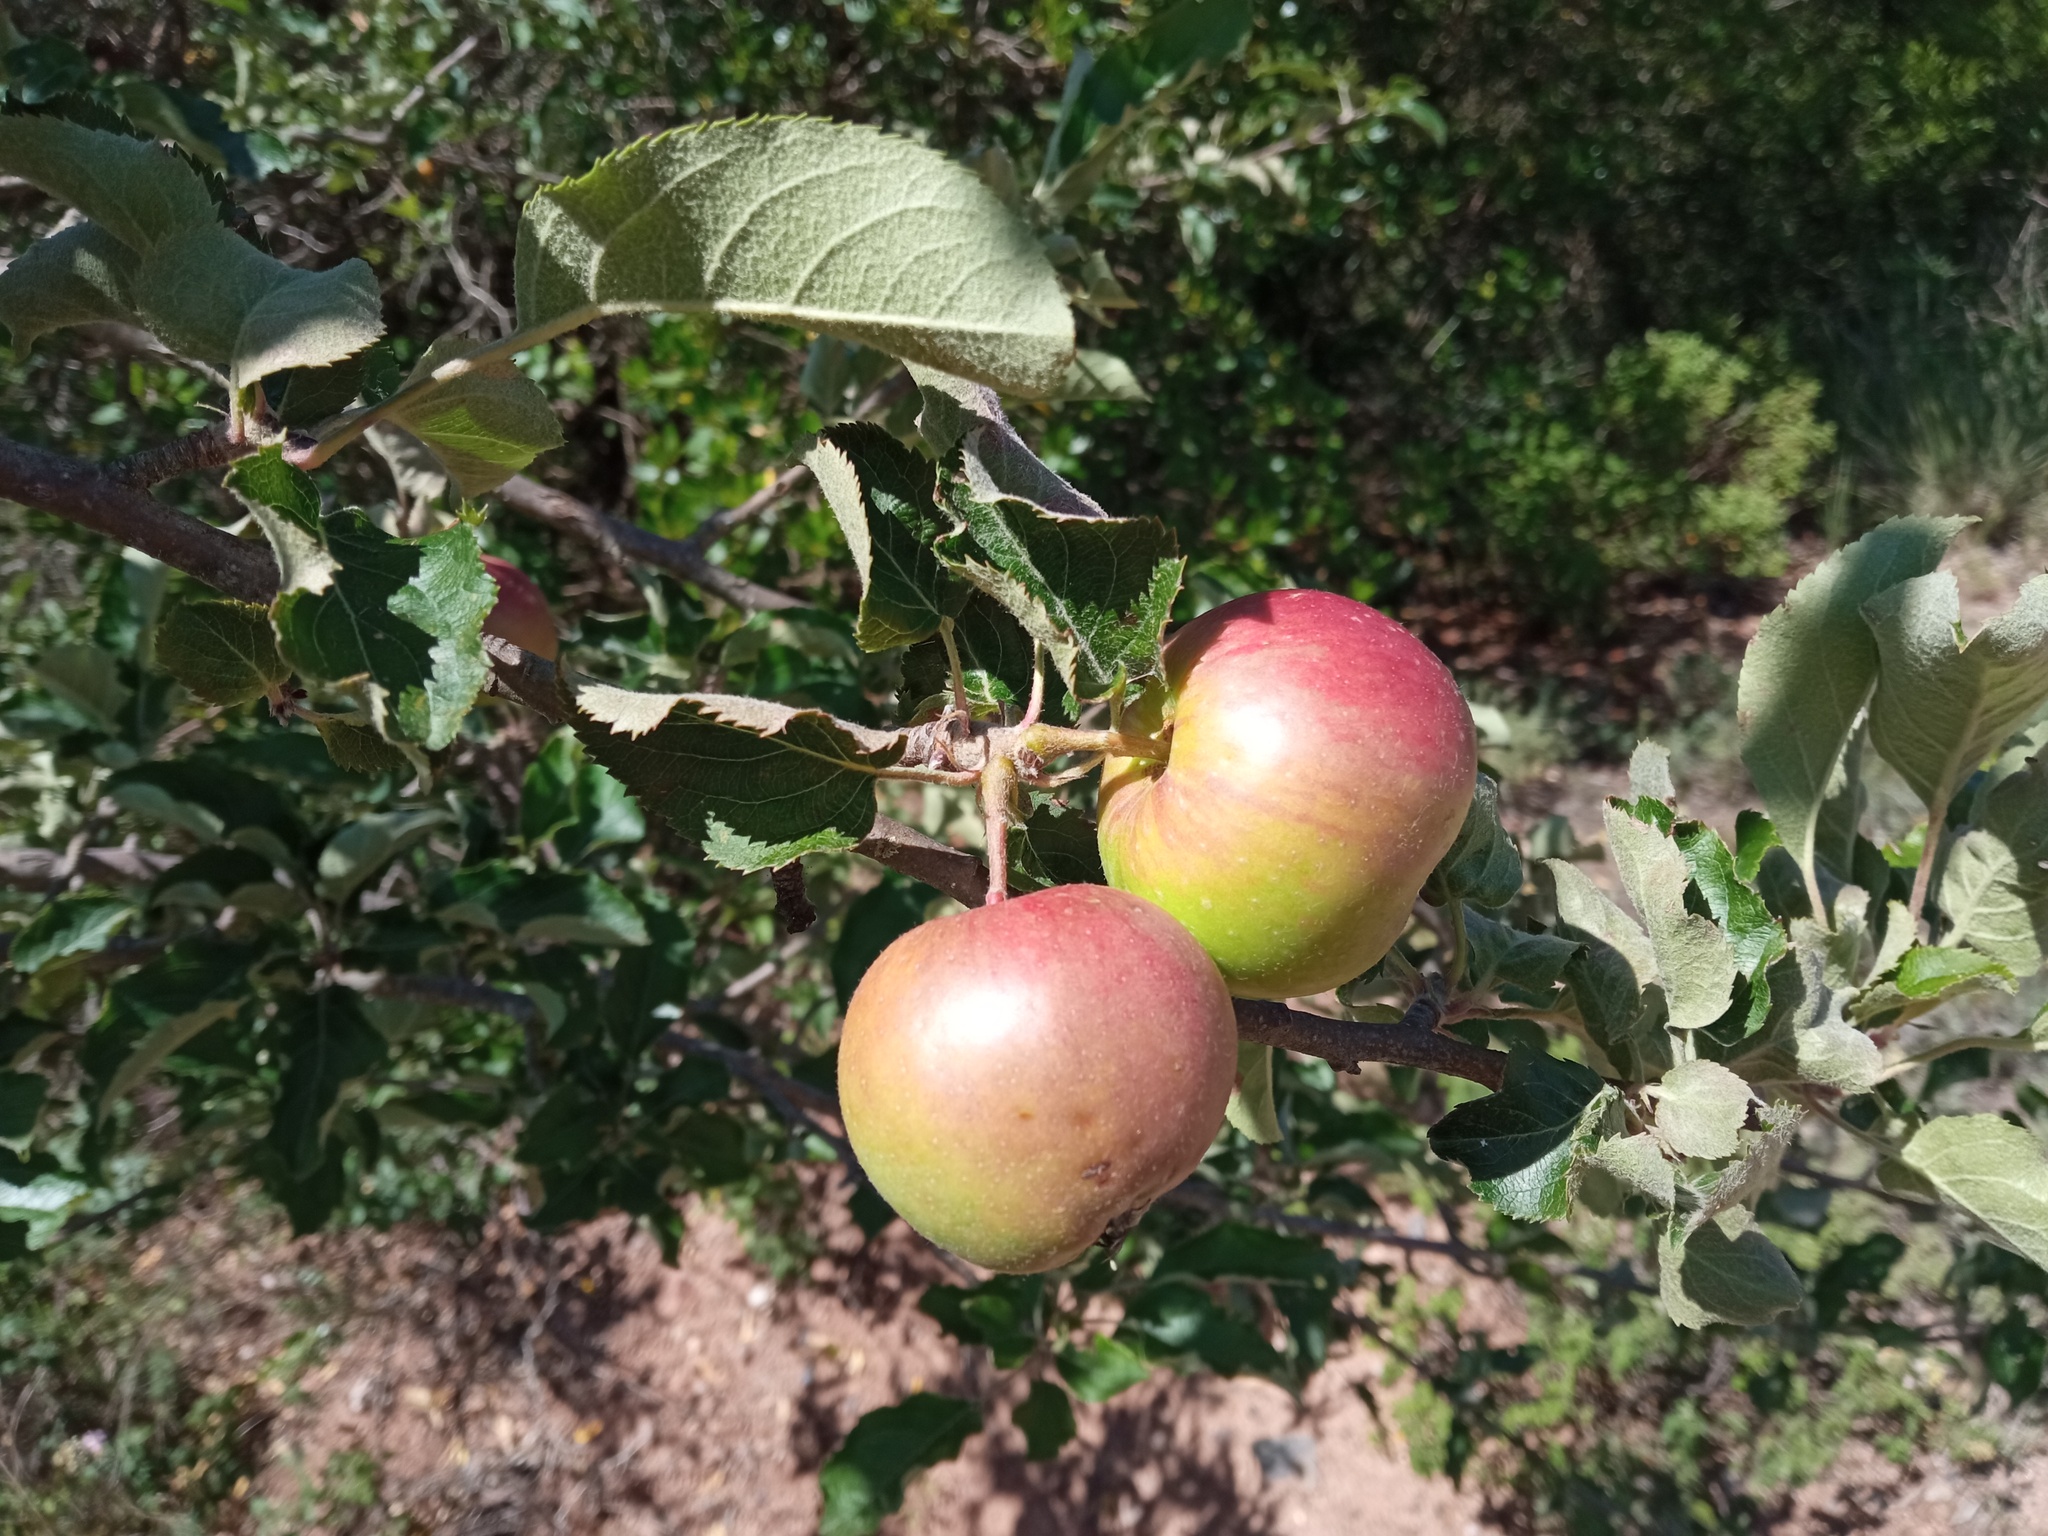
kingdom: Plantae
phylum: Tracheophyta
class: Magnoliopsida
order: Rosales
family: Rosaceae
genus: Malus
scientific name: Malus domestica
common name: Apple
